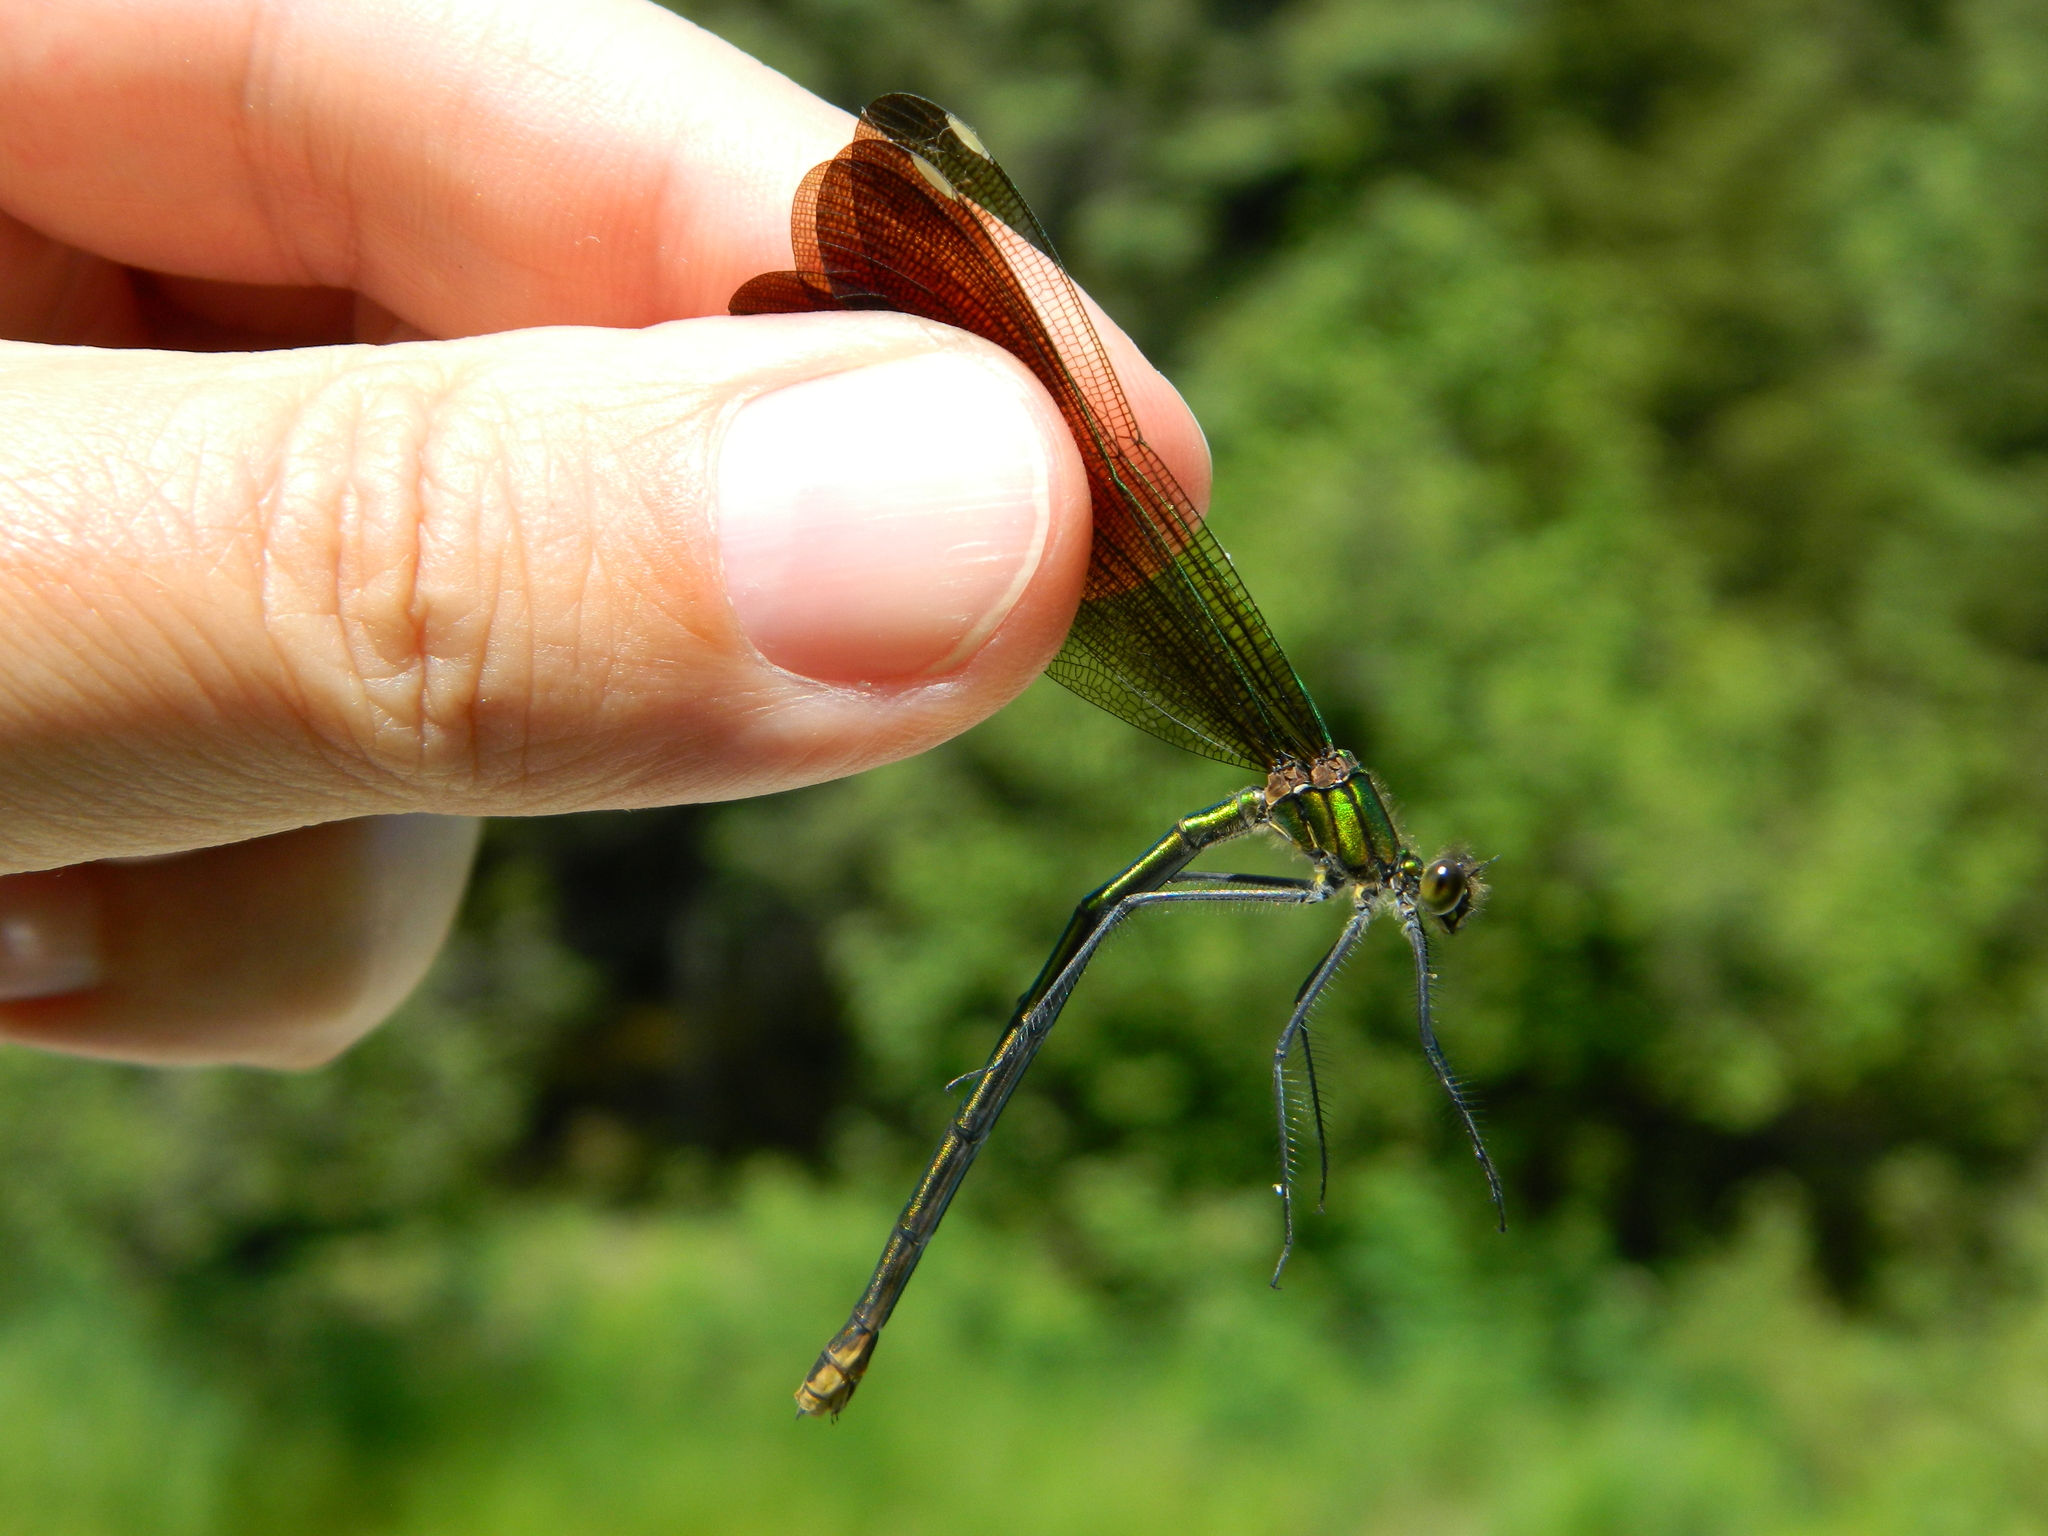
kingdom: Animalia
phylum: Arthropoda
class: Insecta
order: Odonata
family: Calopterygidae
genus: Calopteryx
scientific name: Calopteryx aequabilis
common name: River jewelwing
